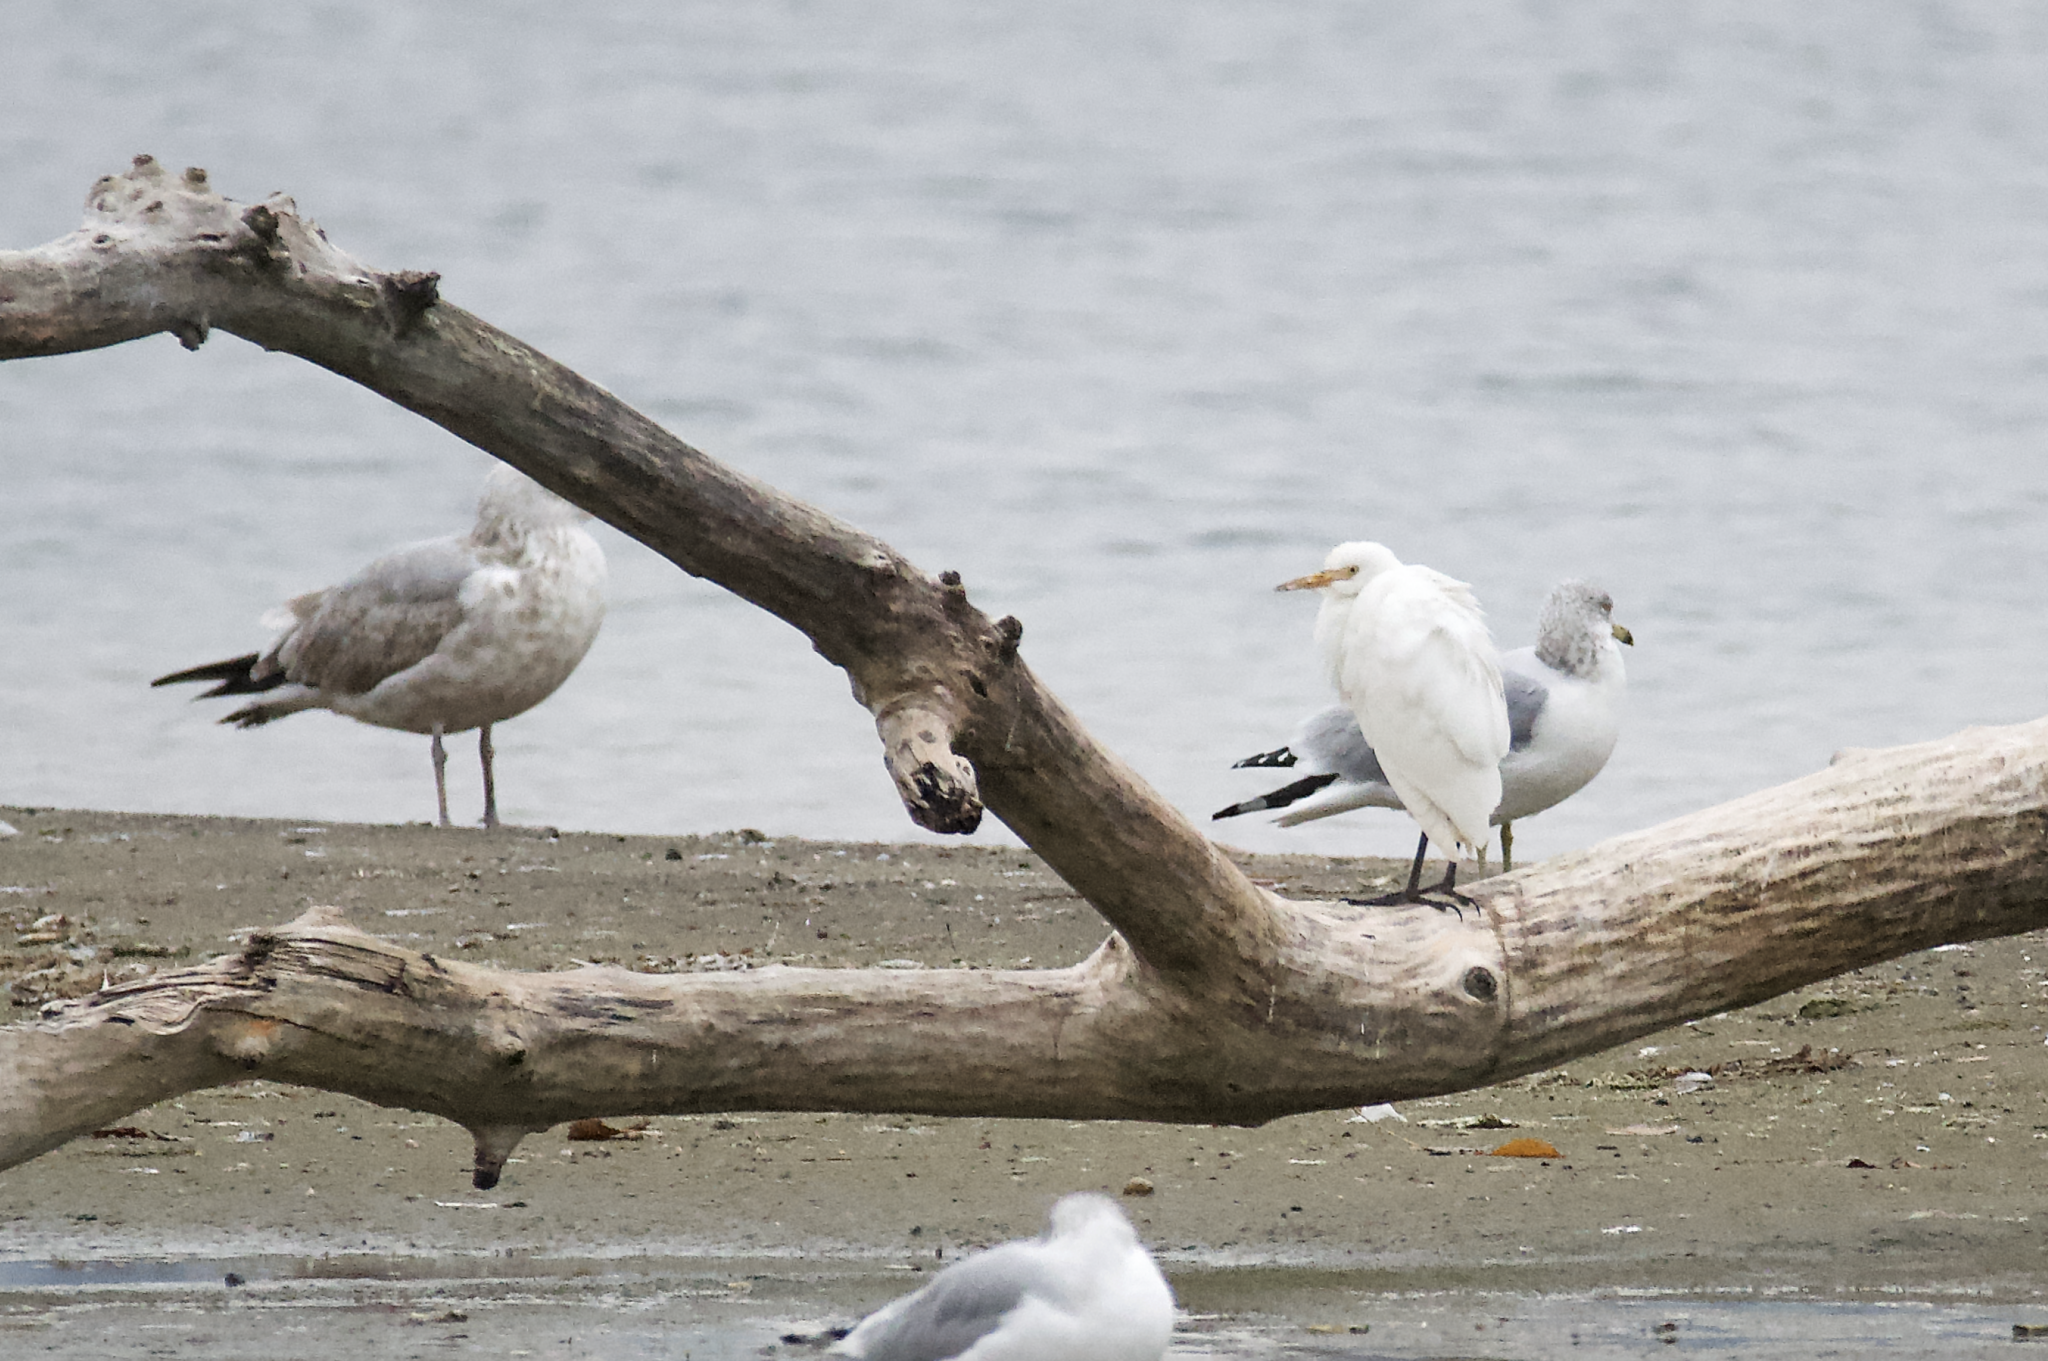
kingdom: Animalia
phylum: Chordata
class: Aves
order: Pelecaniformes
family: Ardeidae
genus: Bubulcus
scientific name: Bubulcus ibis
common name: Cattle egret
